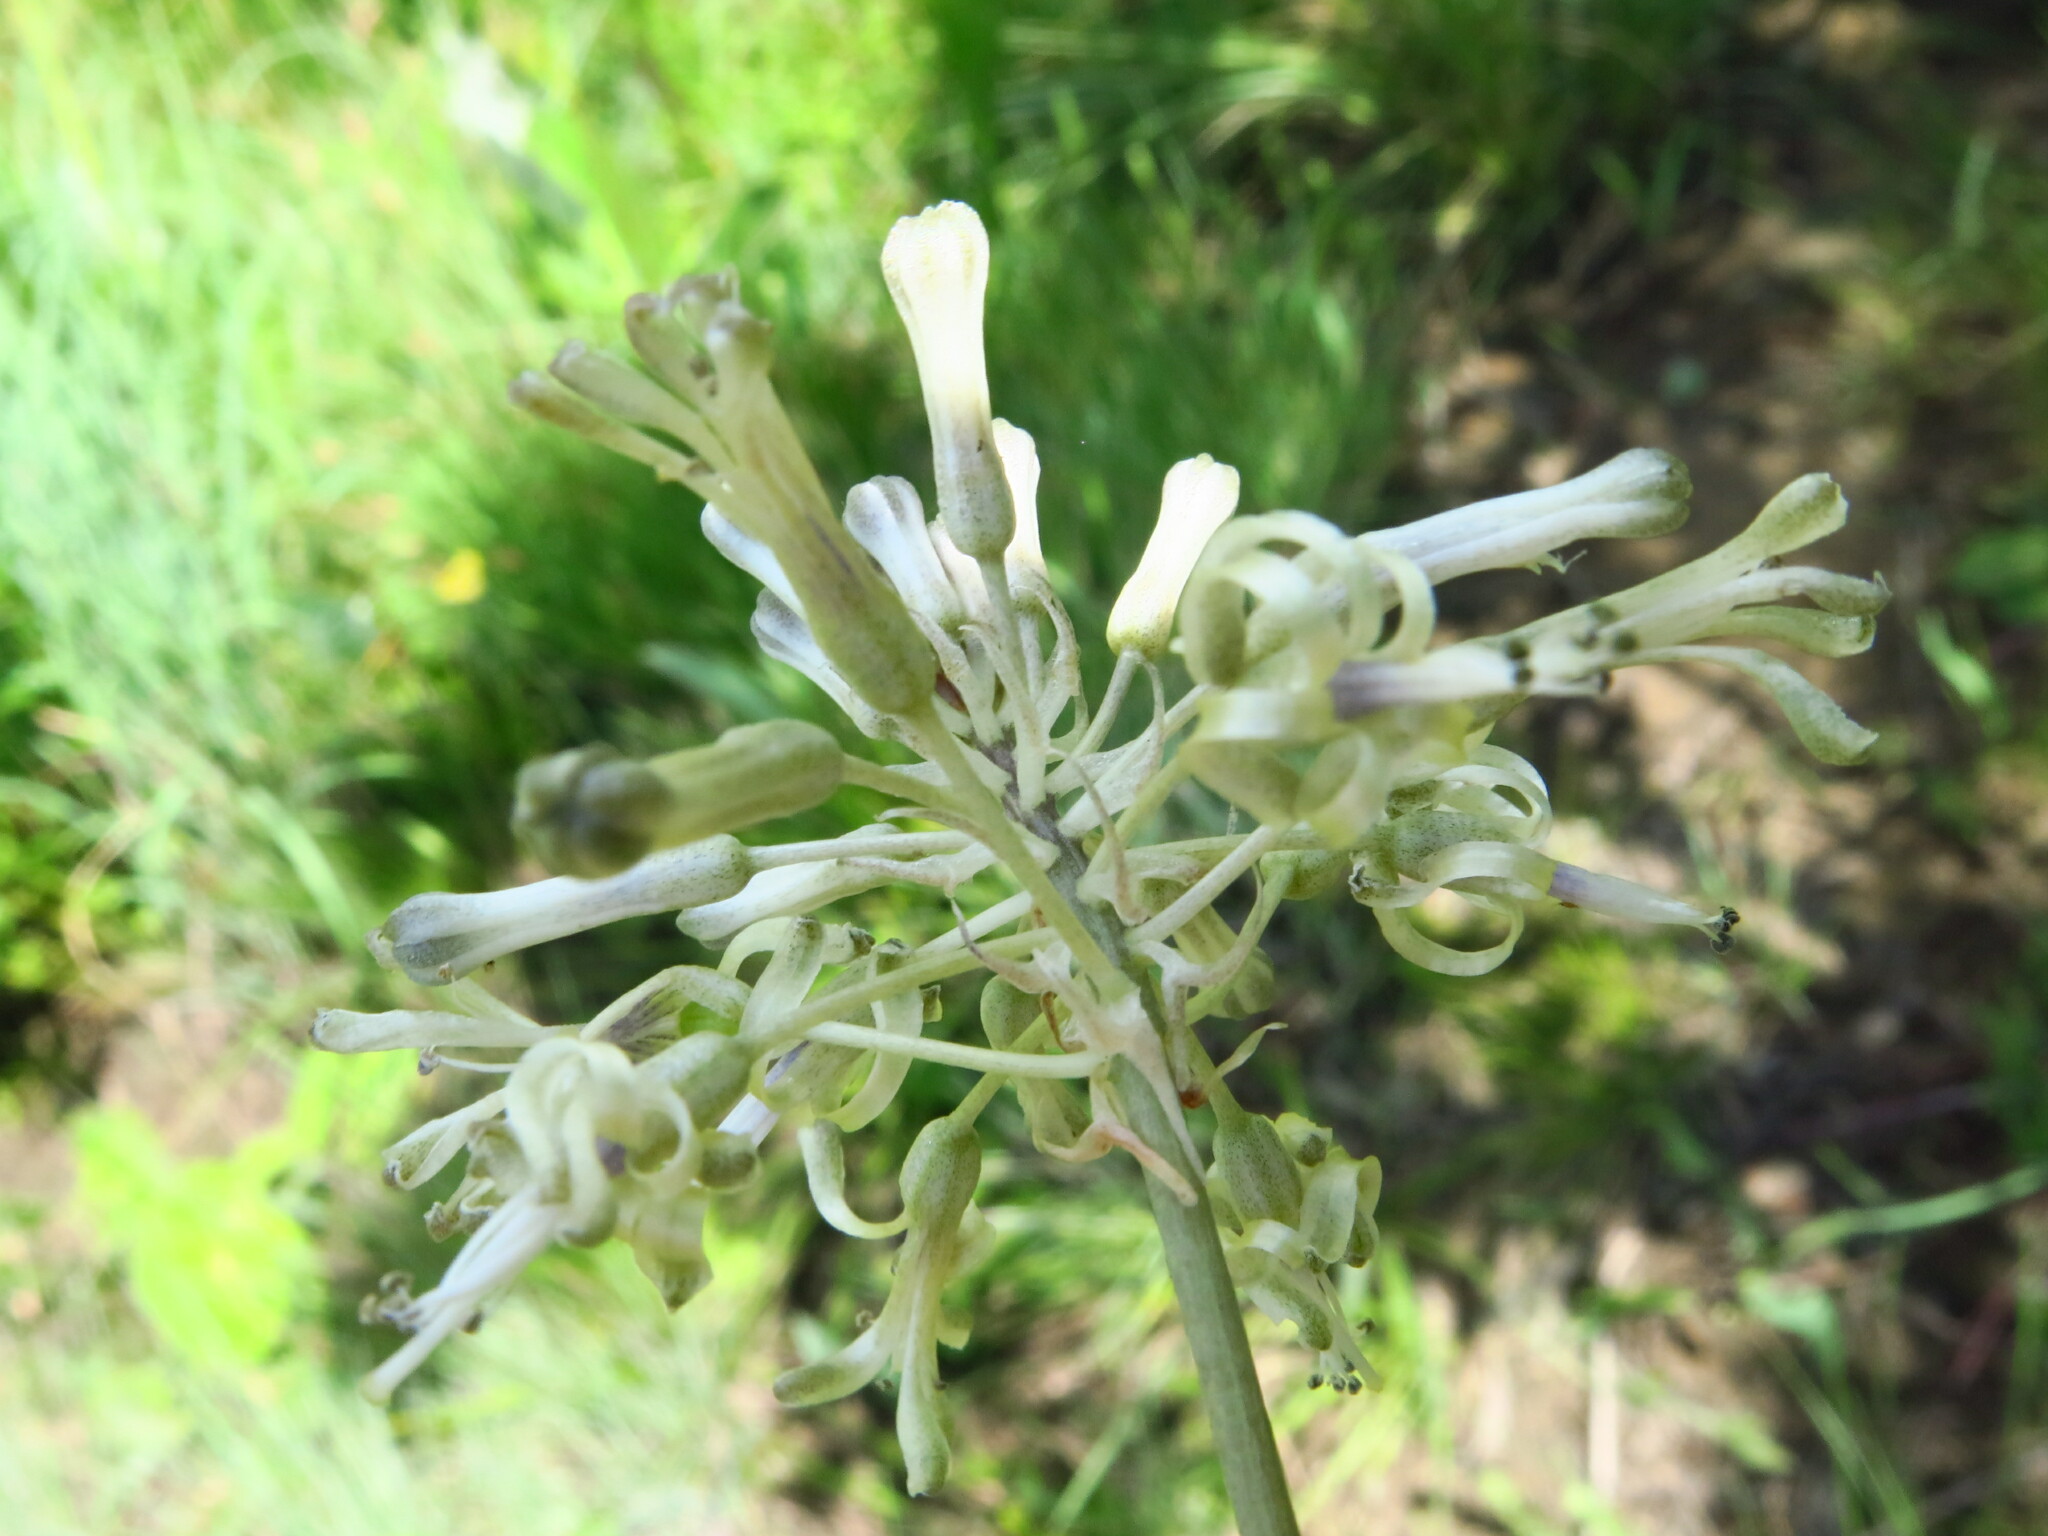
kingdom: Plantae
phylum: Tracheophyta
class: Liliopsida
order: Asparagales
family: Asparagaceae
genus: Drimia
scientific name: Drimia sphaerocephala
